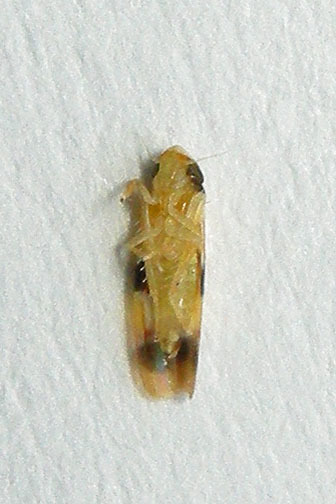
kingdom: Animalia
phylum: Arthropoda
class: Insecta
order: Hemiptera
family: Cicadellidae
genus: Erythroneura
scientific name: Erythroneura integra
